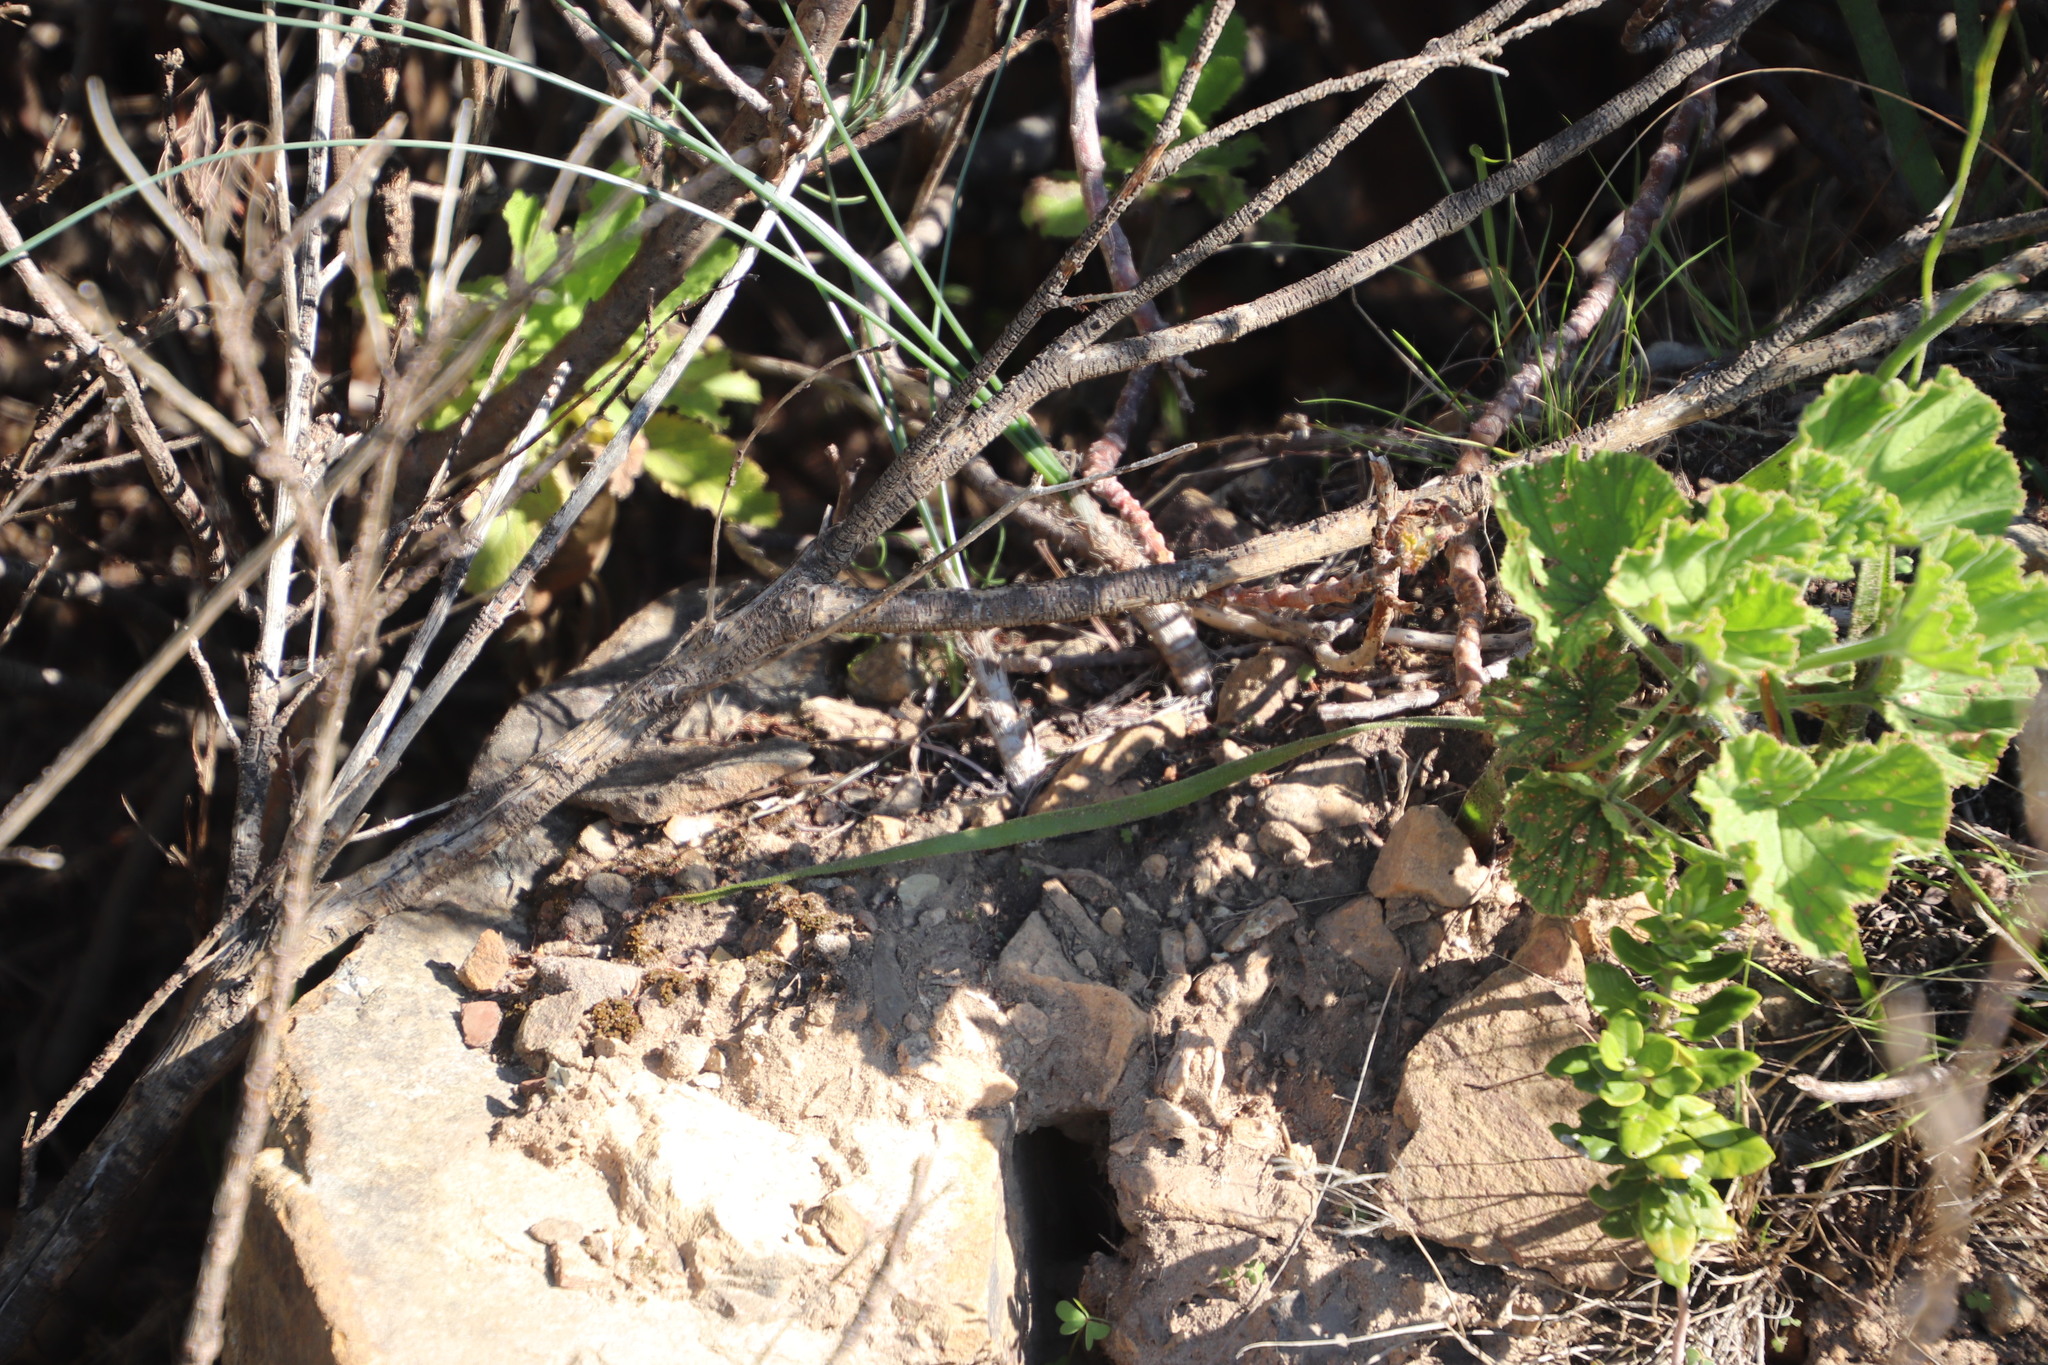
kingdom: Plantae
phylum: Tracheophyta
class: Liliopsida
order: Asparagales
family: Asparagaceae
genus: Drimia
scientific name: Drimia exuviata
